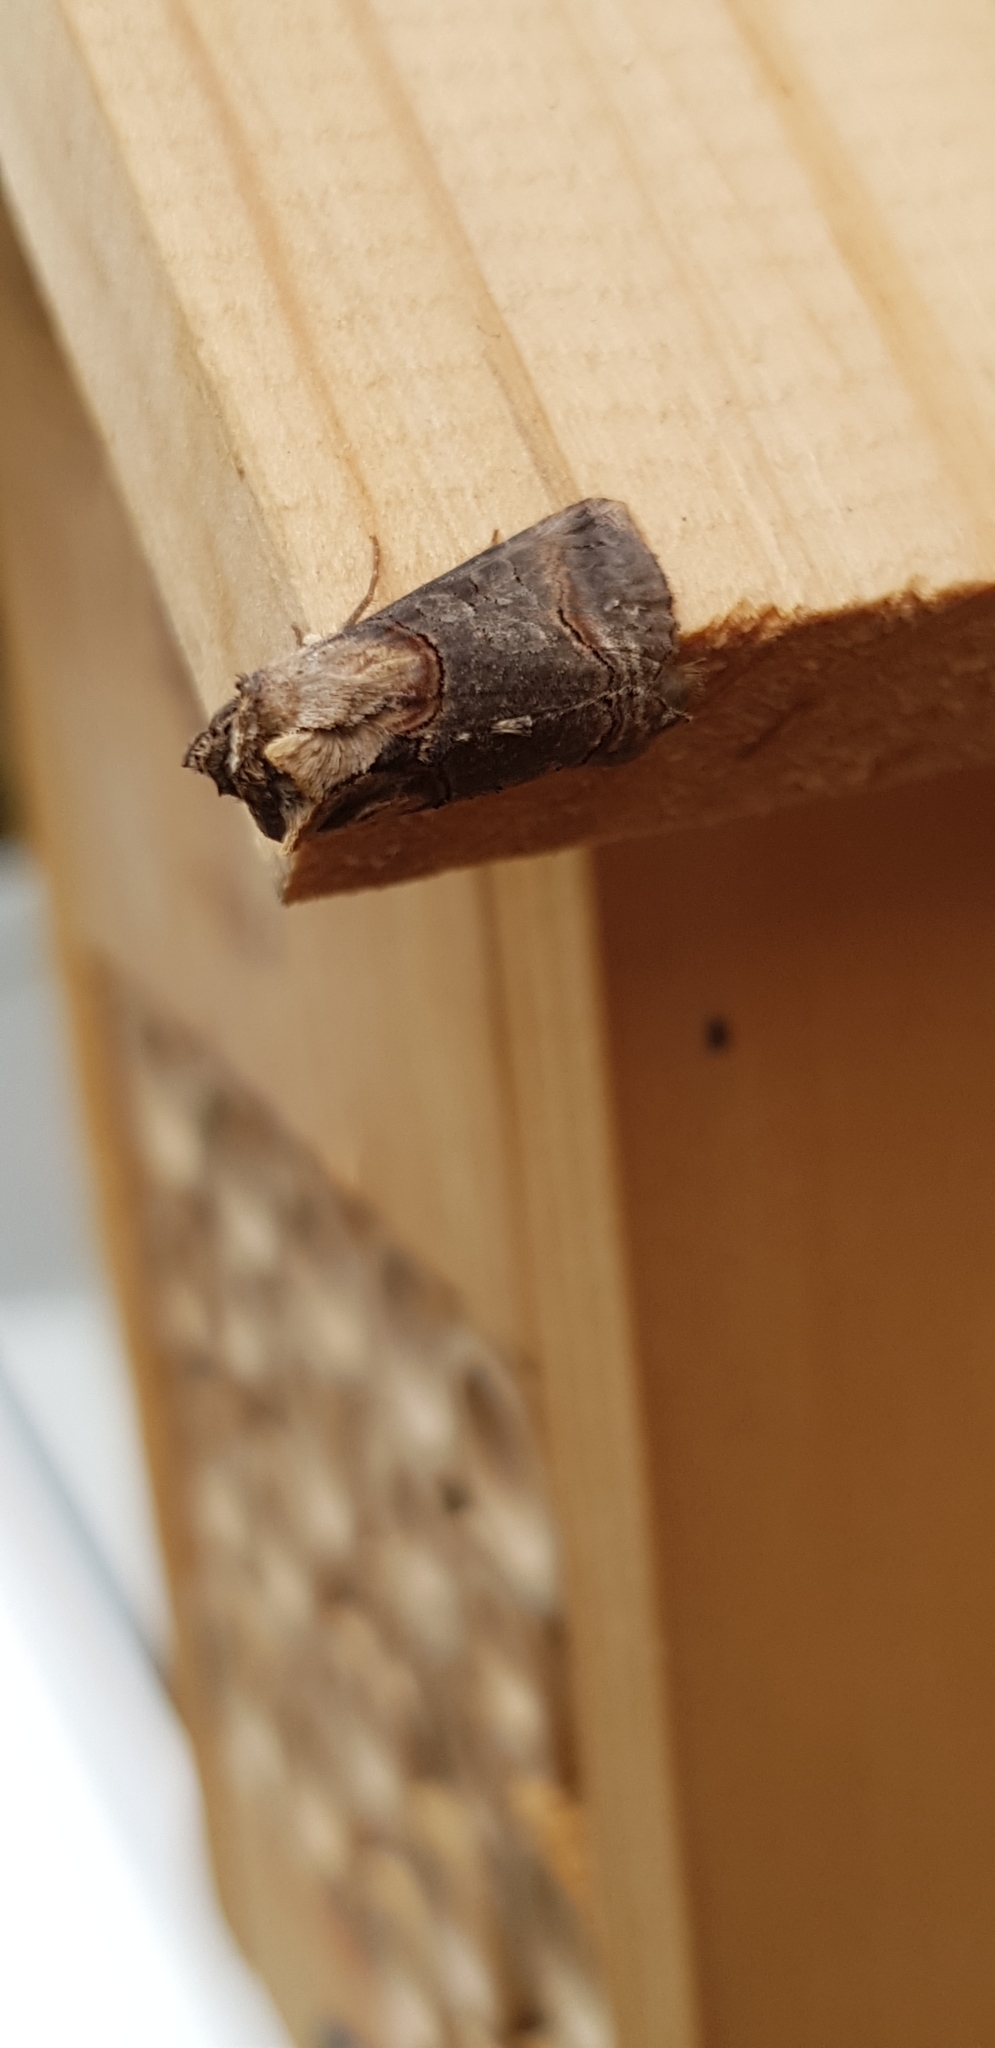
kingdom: Animalia
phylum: Arthropoda
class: Insecta
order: Lepidoptera
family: Noctuidae
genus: Abrostola
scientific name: Abrostola triplasia
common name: Dark spectacle
